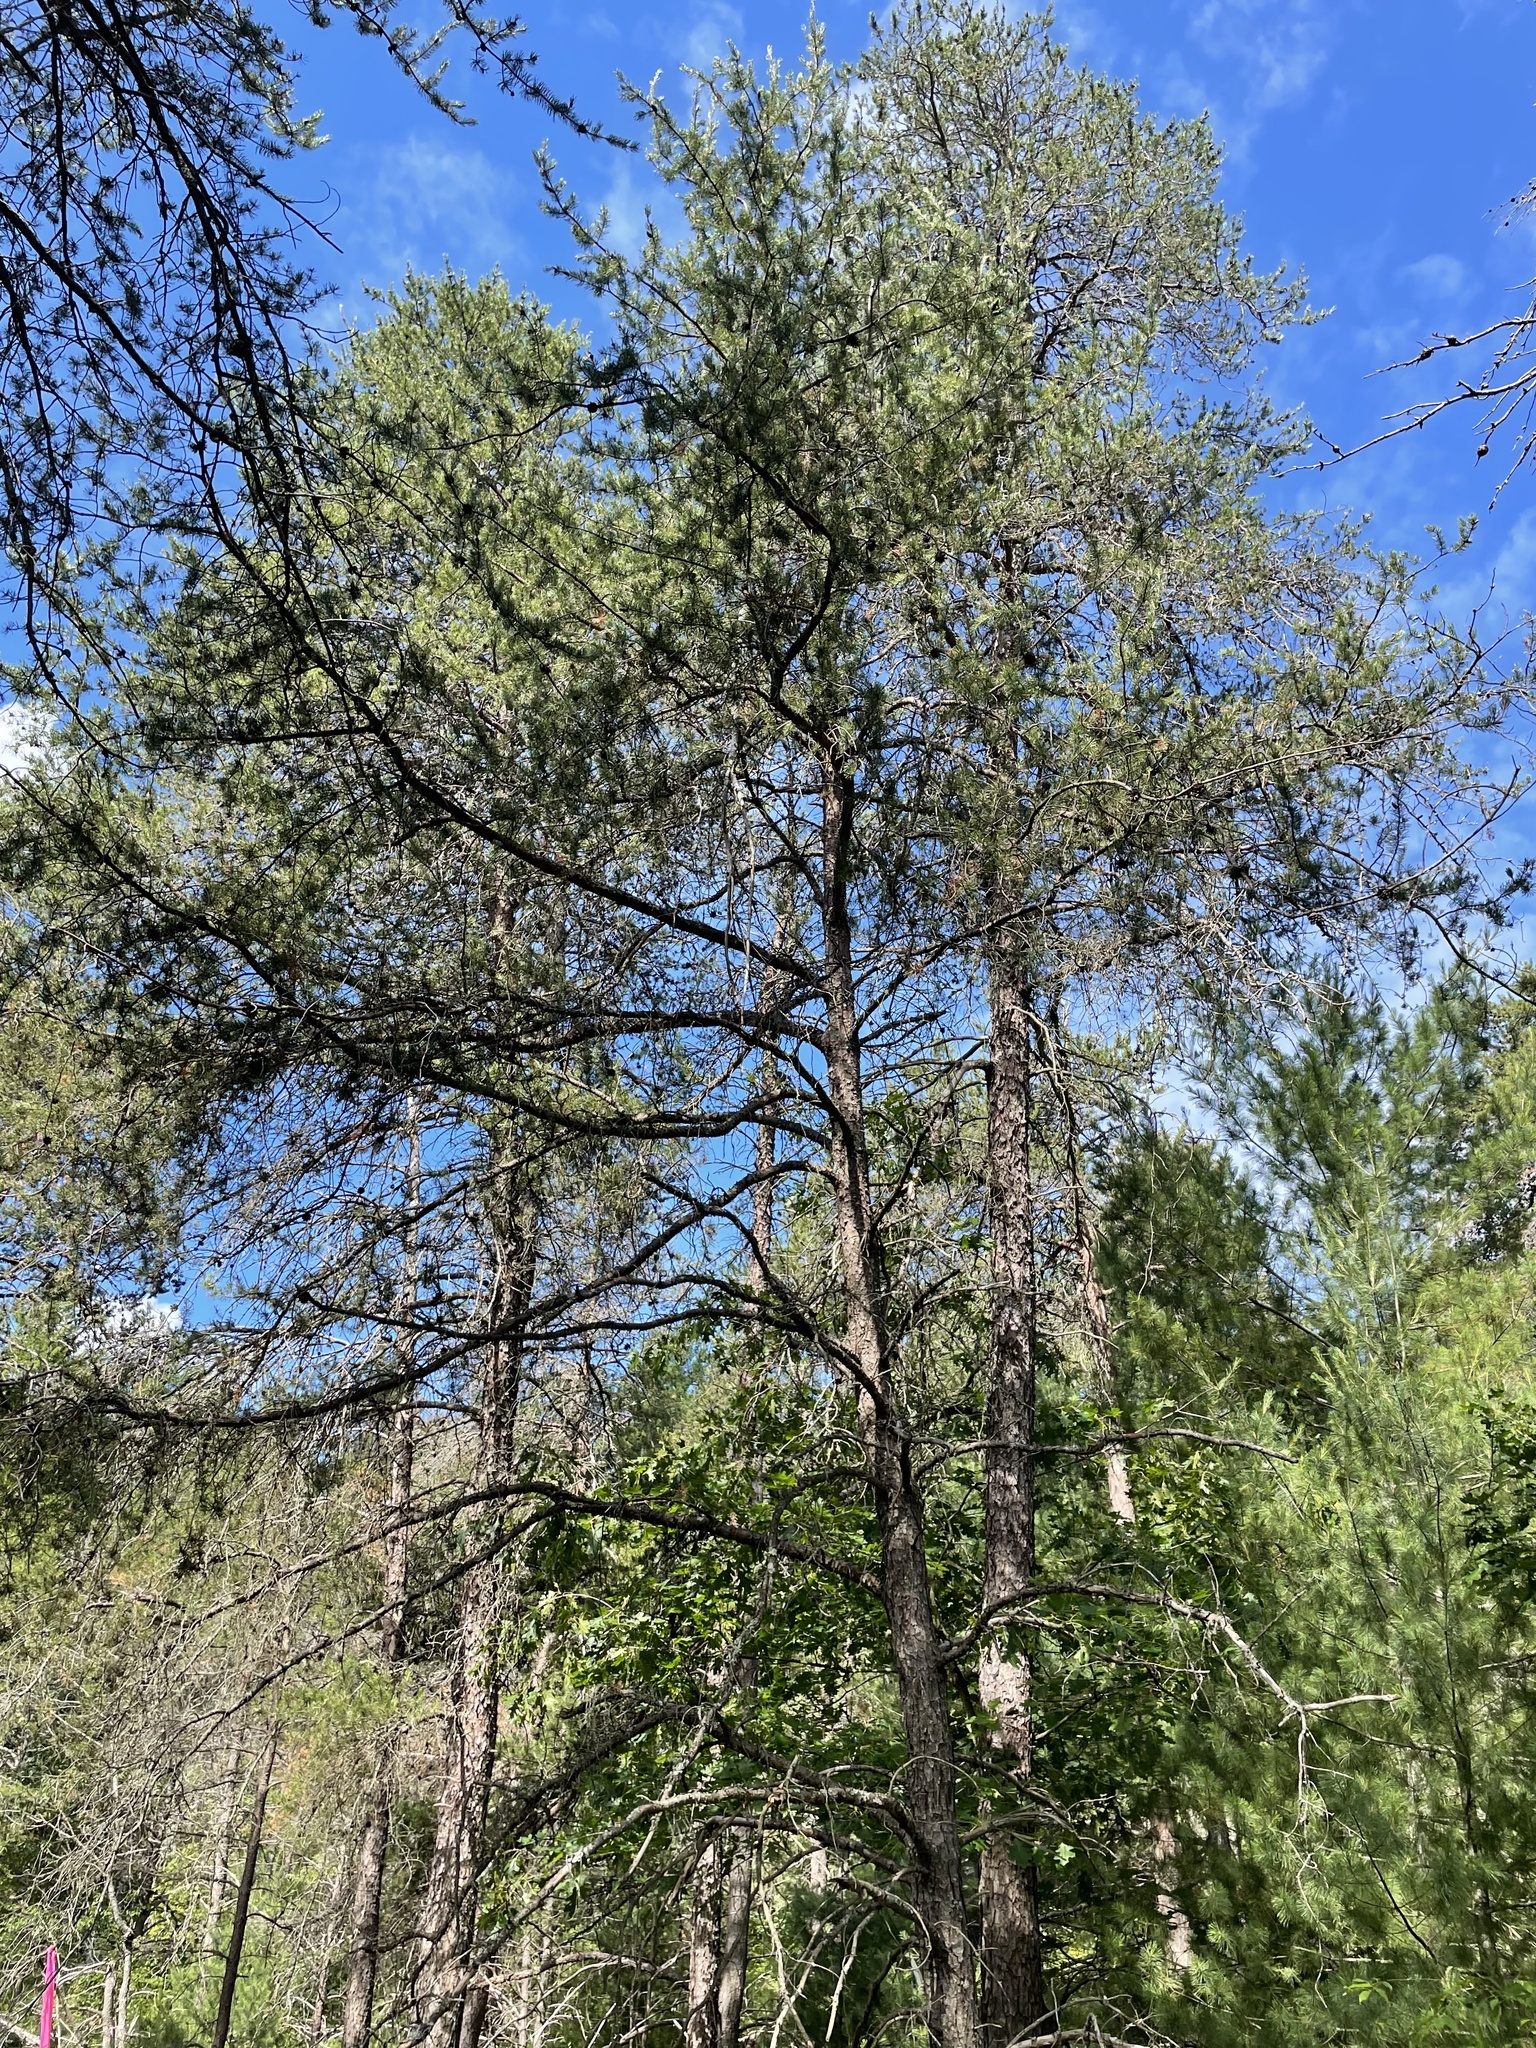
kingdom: Plantae
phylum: Tracheophyta
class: Pinopsida
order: Pinales
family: Pinaceae
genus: Pinus
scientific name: Pinus banksiana
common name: Jack pine
